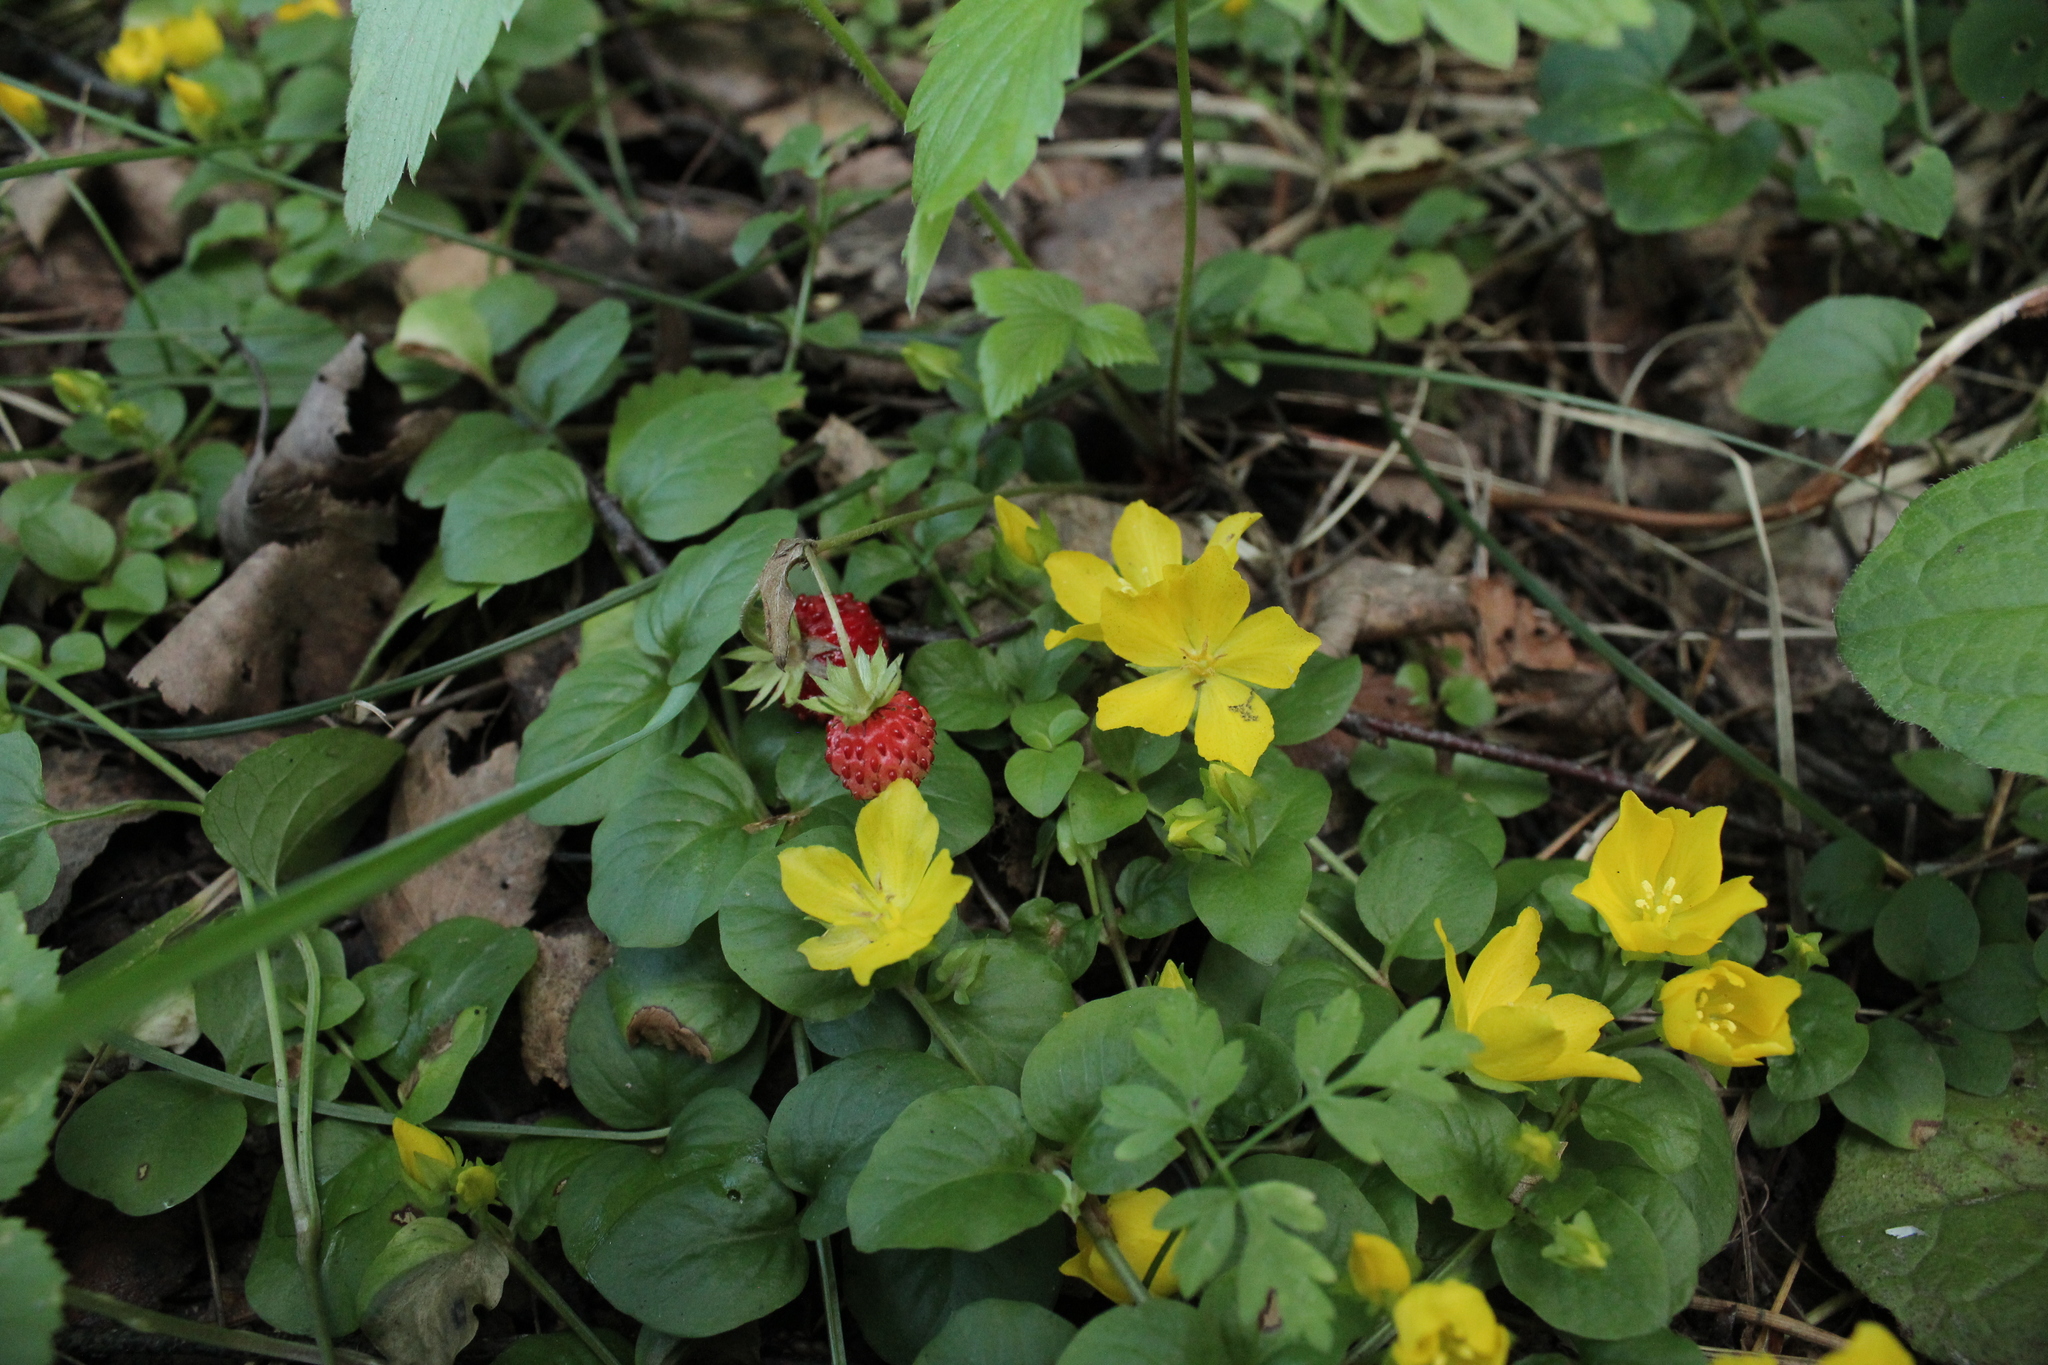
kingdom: Plantae
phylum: Tracheophyta
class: Magnoliopsida
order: Ericales
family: Primulaceae
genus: Lysimachia
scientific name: Lysimachia nummularia
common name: Moneywort
